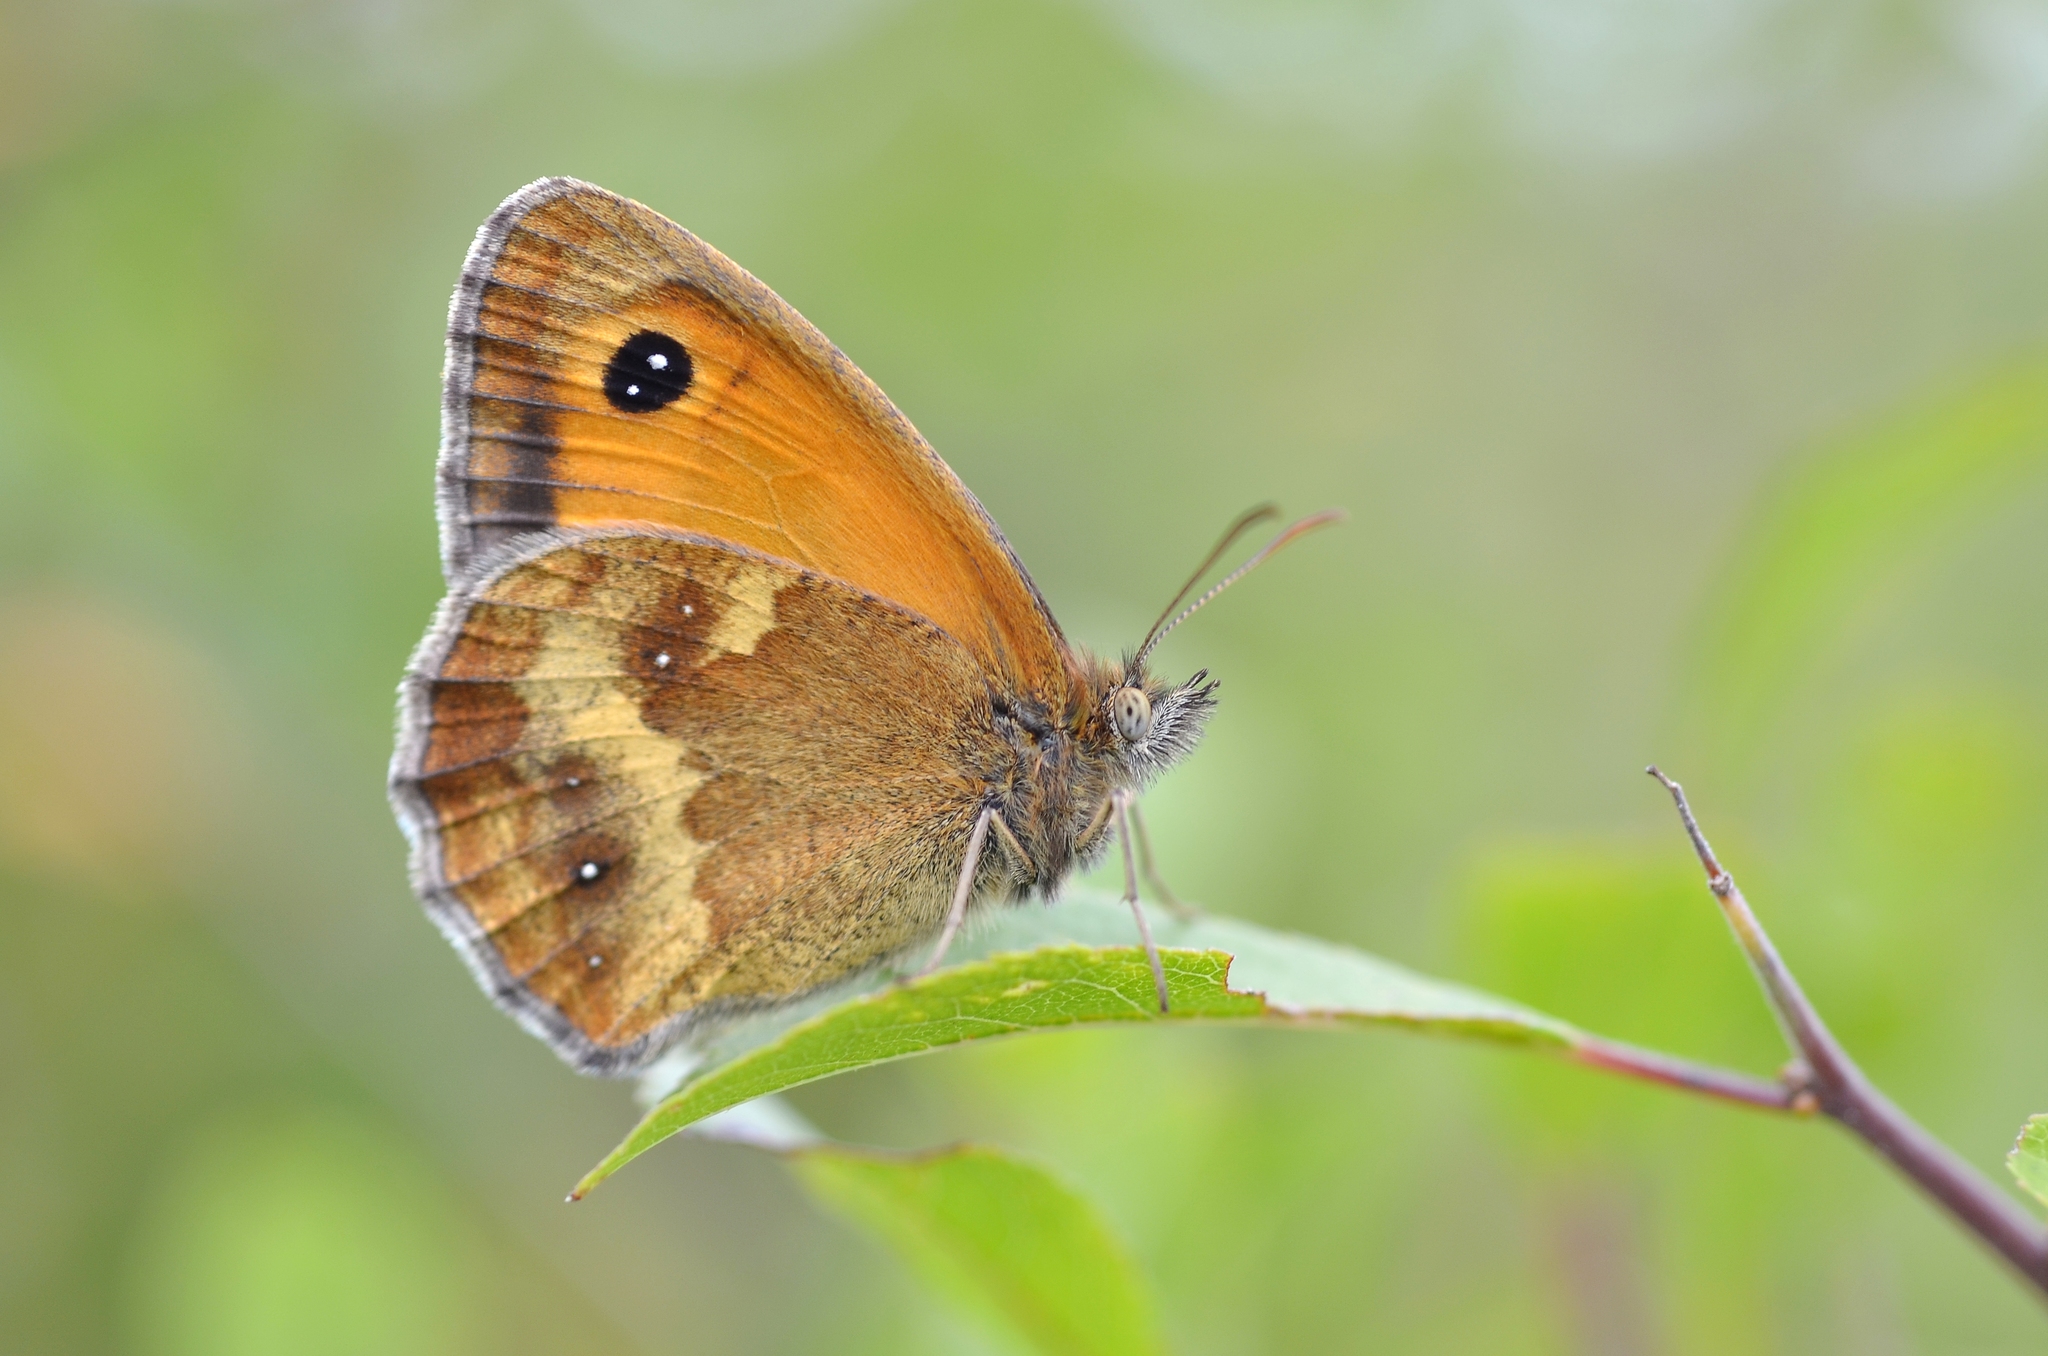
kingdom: Animalia
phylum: Arthropoda
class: Insecta
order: Lepidoptera
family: Nymphalidae
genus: Pyronia
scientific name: Pyronia tithonus
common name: Gatekeeper
